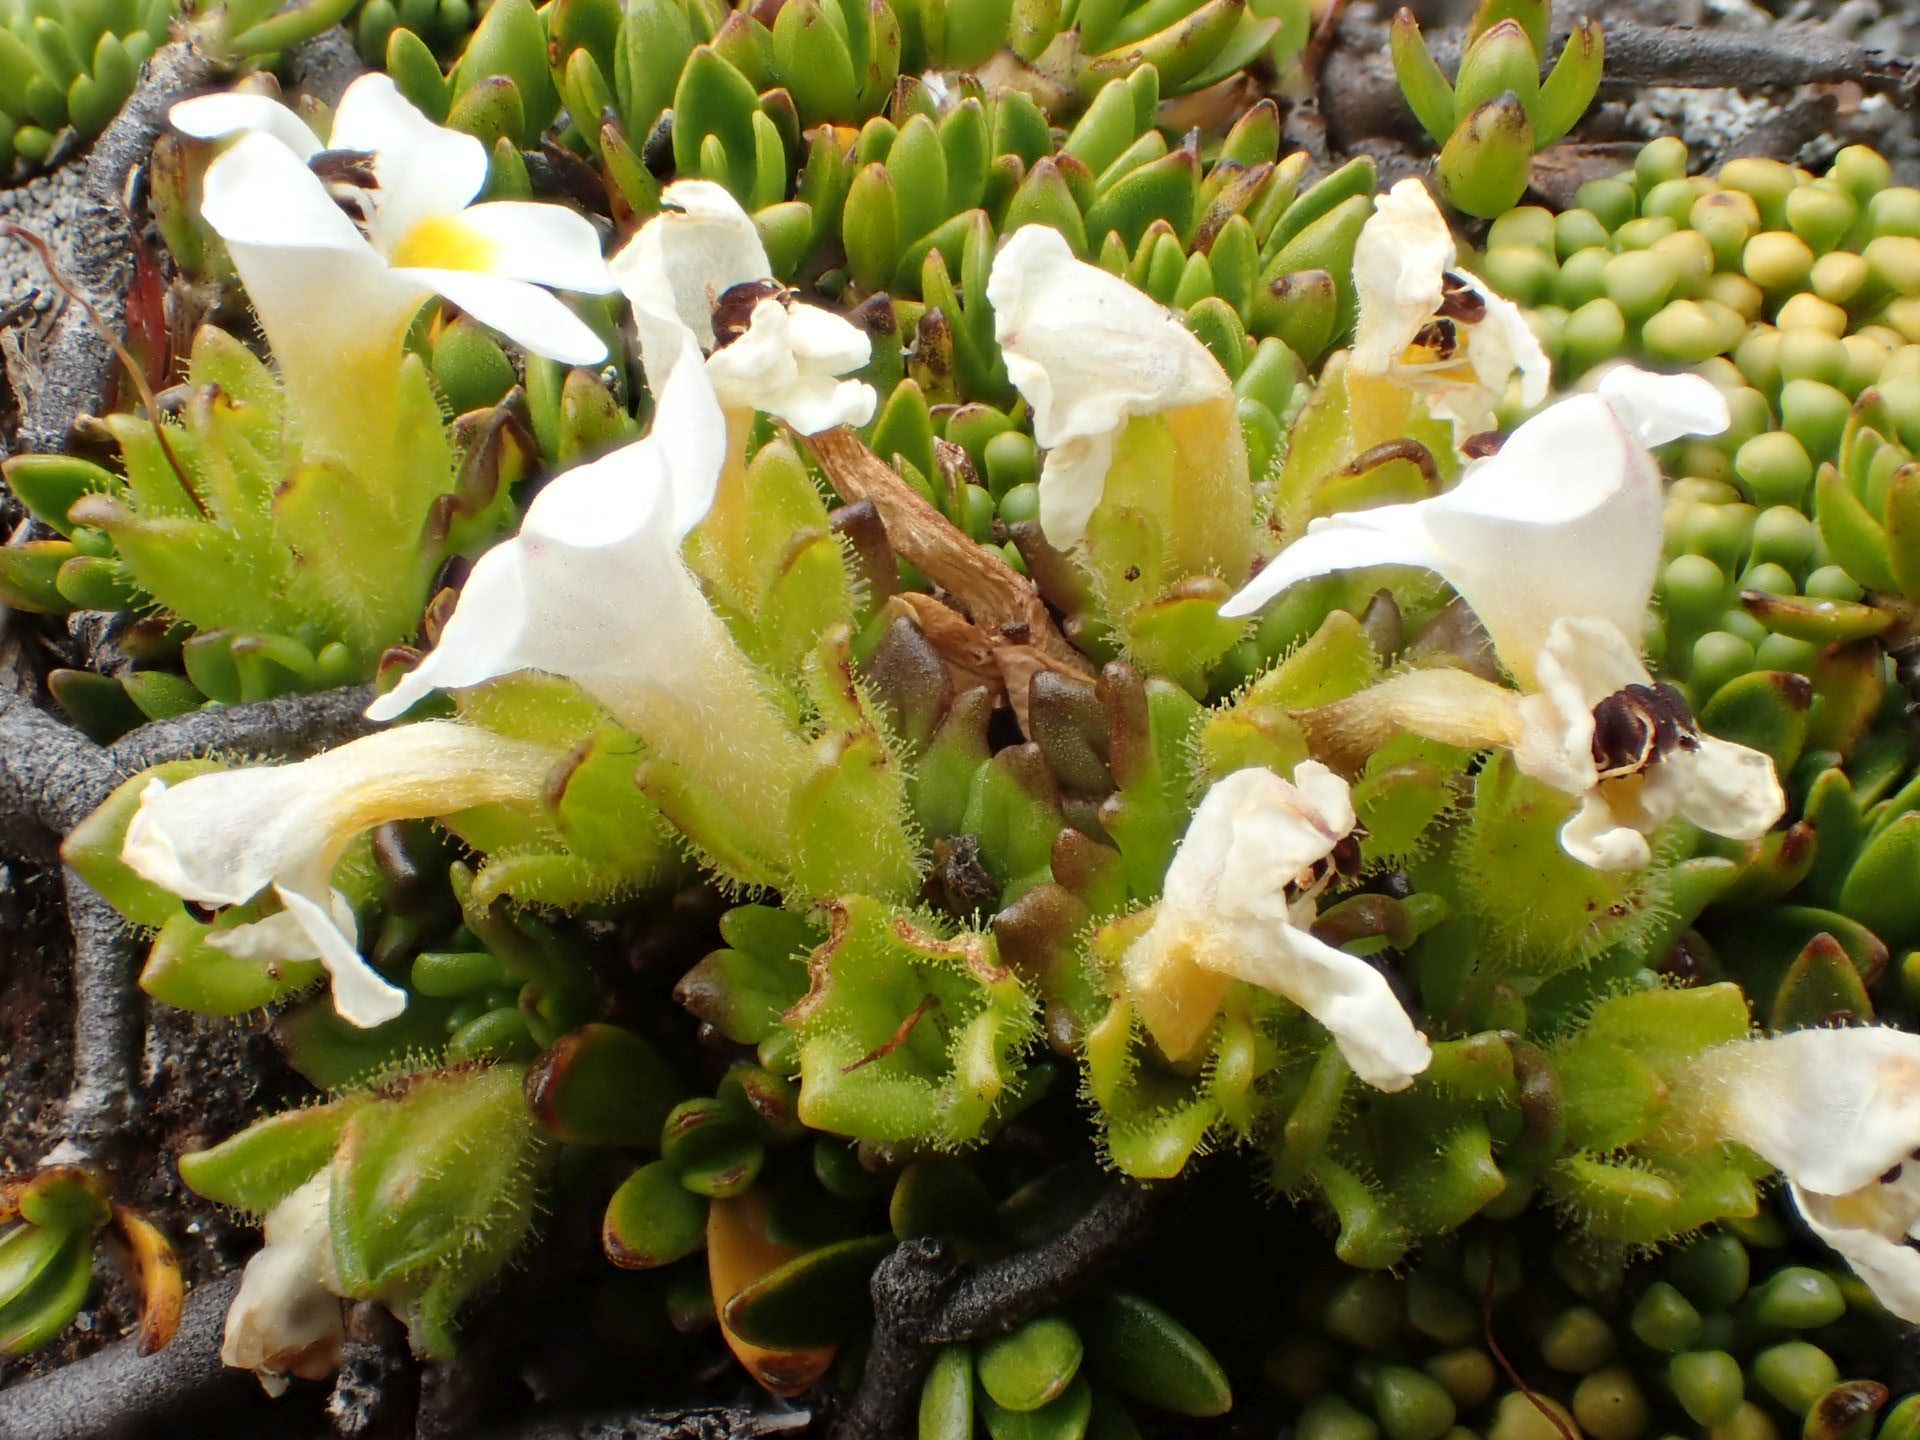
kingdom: Plantae
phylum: Tracheophyta
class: Magnoliopsida
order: Lamiales
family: Orobanchaceae
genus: Euphrasia
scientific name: Euphrasia petriei
